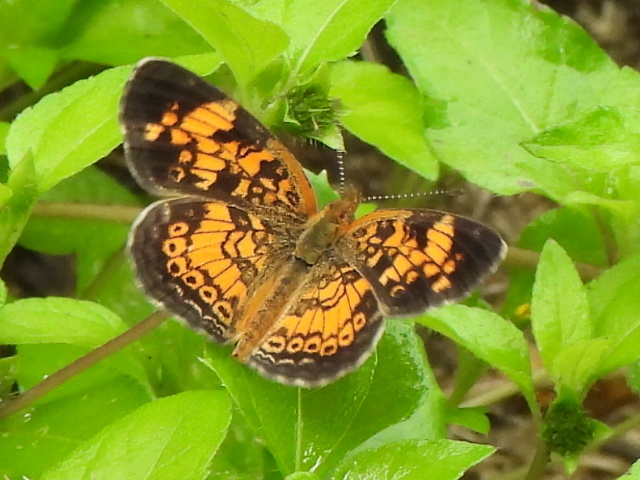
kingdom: Animalia
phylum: Arthropoda
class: Insecta
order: Lepidoptera
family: Nymphalidae
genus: Phyciodes
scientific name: Phyciodes tharos
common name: Pearl crescent
